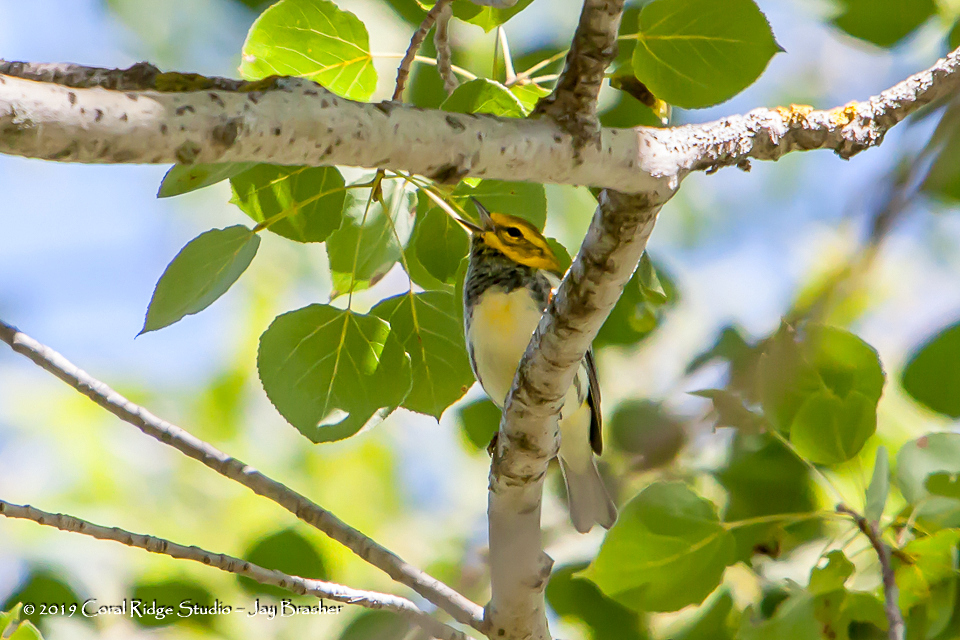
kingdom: Animalia
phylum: Chordata
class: Aves
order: Passeriformes
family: Parulidae
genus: Setophaga
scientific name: Setophaga virens
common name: Black-throated green warbler
